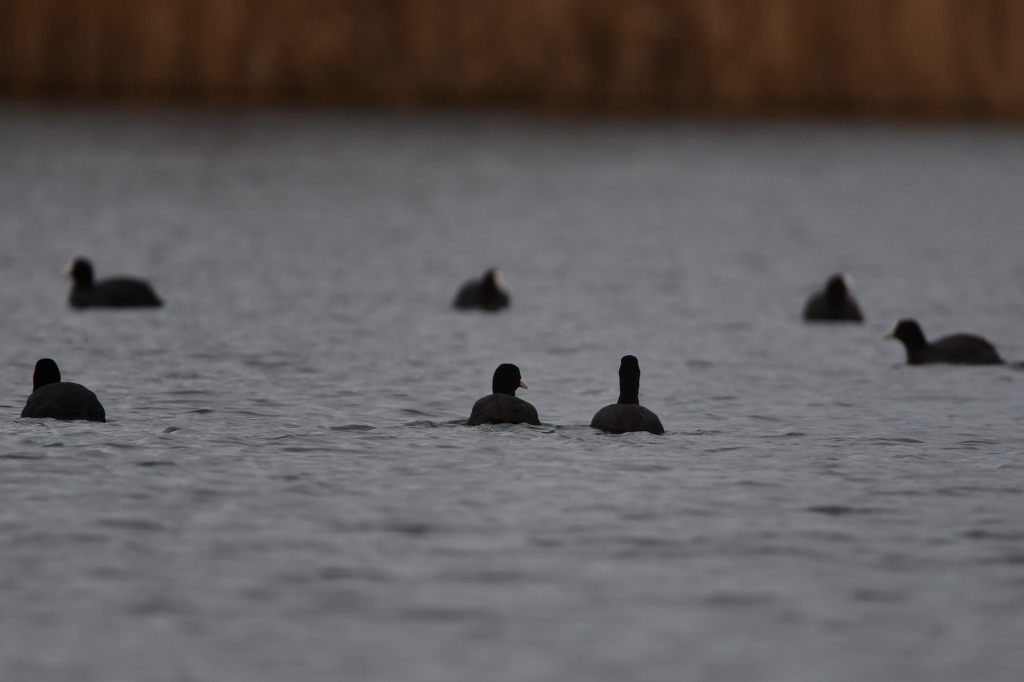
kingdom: Animalia
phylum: Chordata
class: Aves
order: Gruiformes
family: Rallidae
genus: Fulica
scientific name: Fulica atra
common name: Eurasian coot
